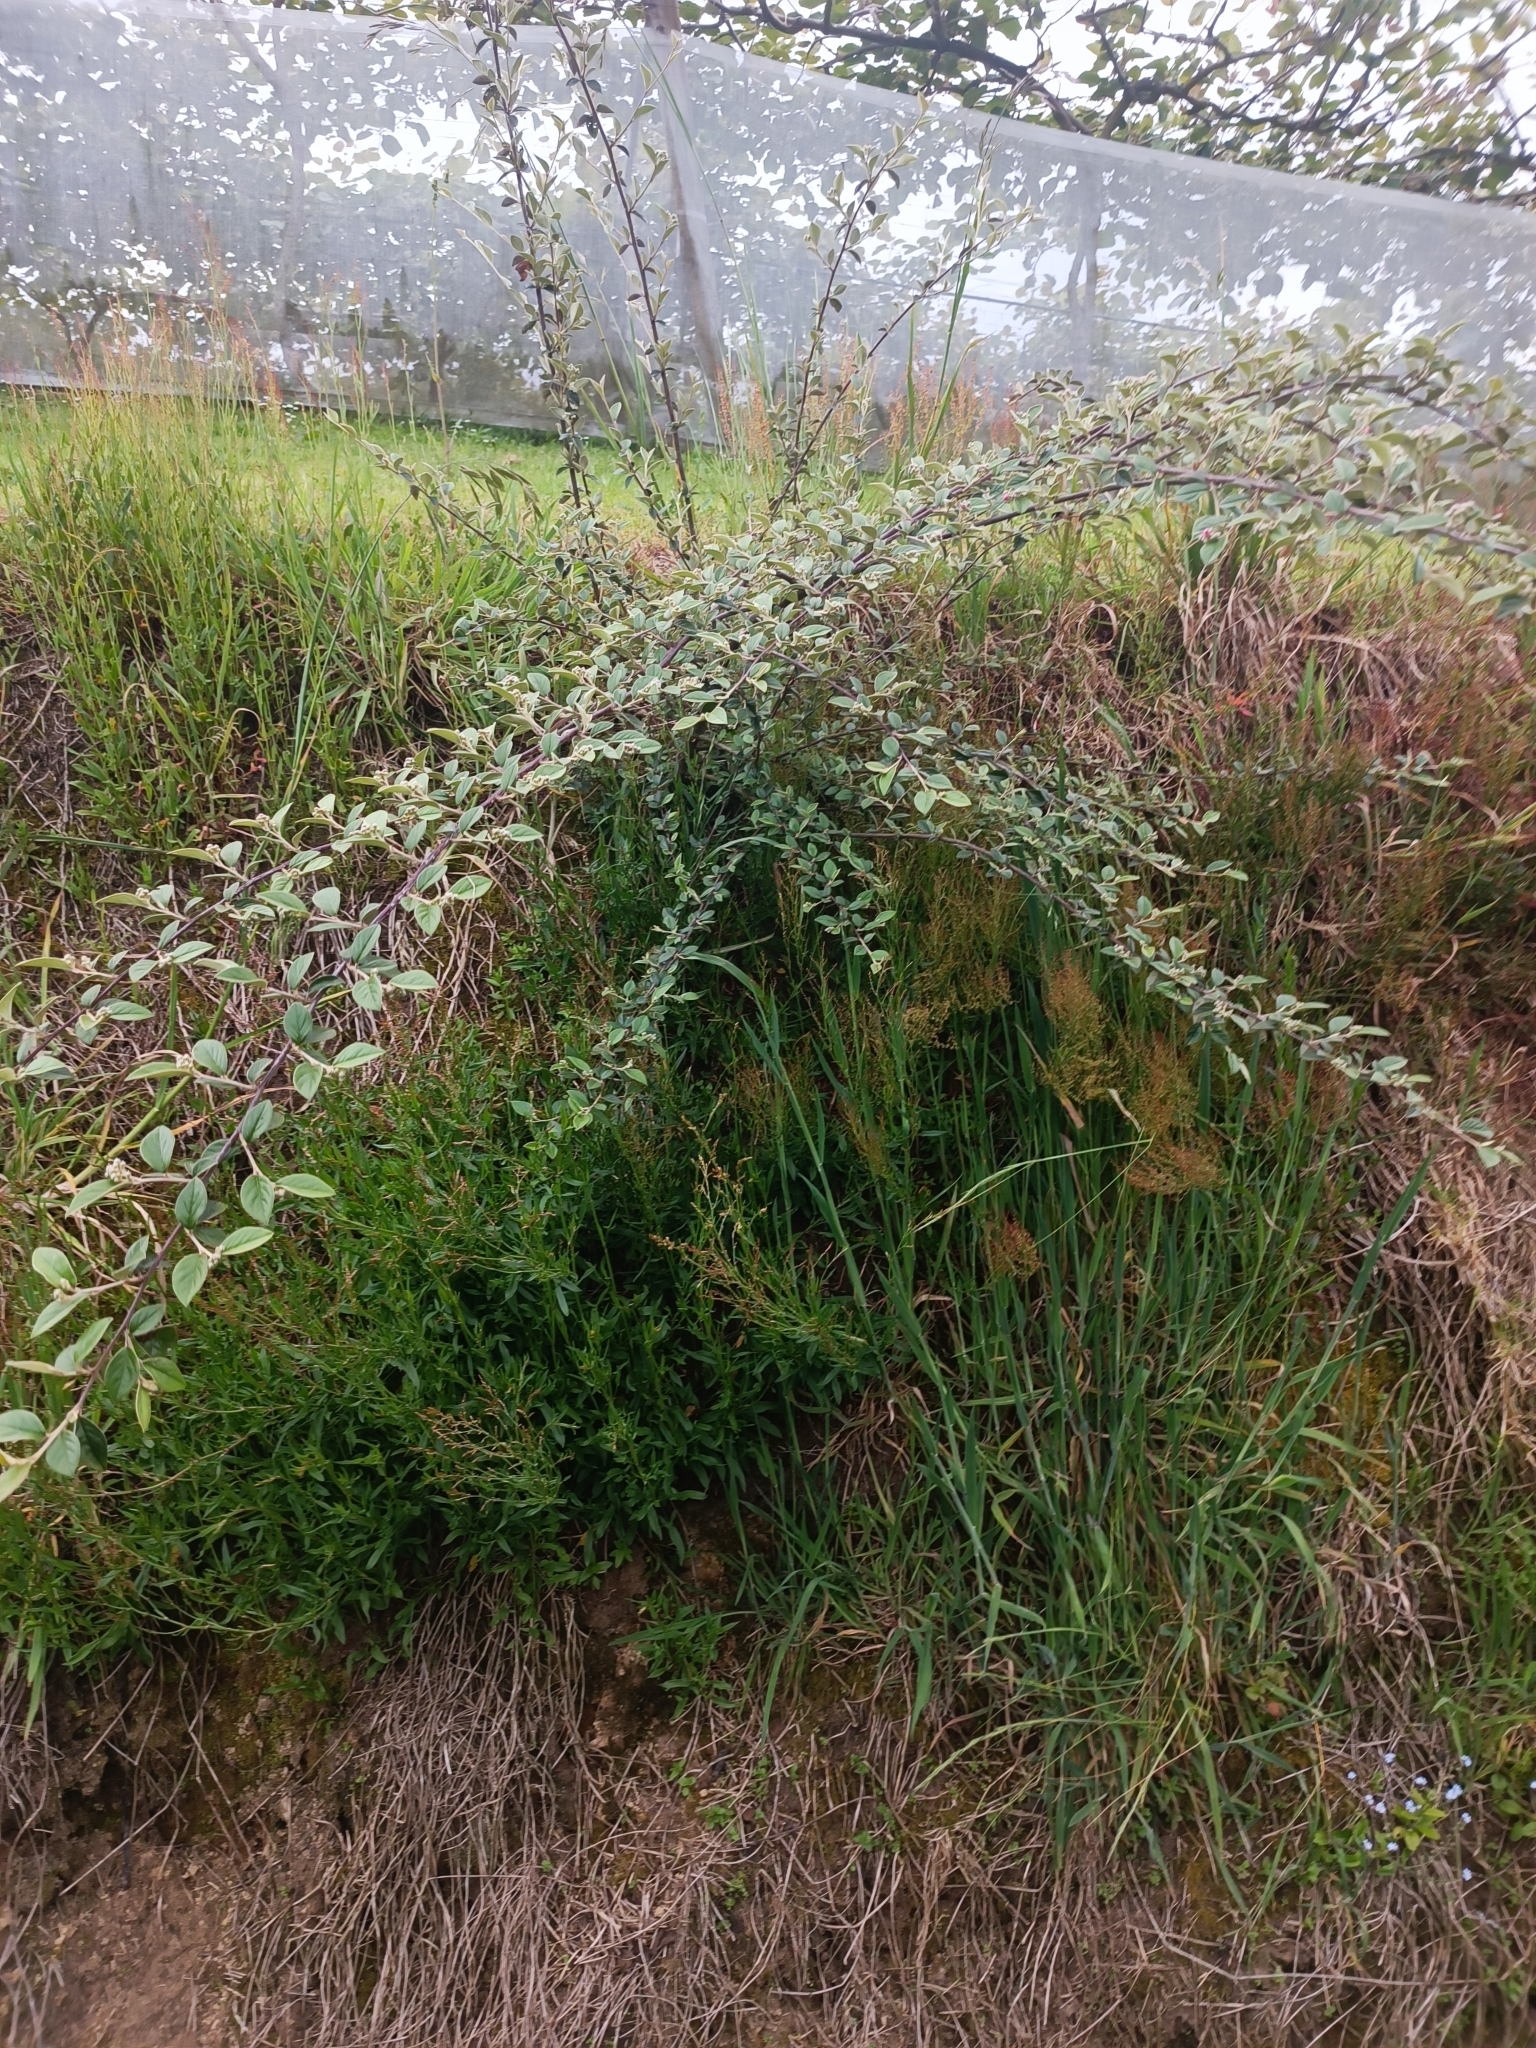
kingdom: Plantae
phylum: Tracheophyta
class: Magnoliopsida
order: Rosales
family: Rosaceae
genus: Cotoneaster
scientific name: Cotoneaster franchetii
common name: Franchet's cotoneaster
